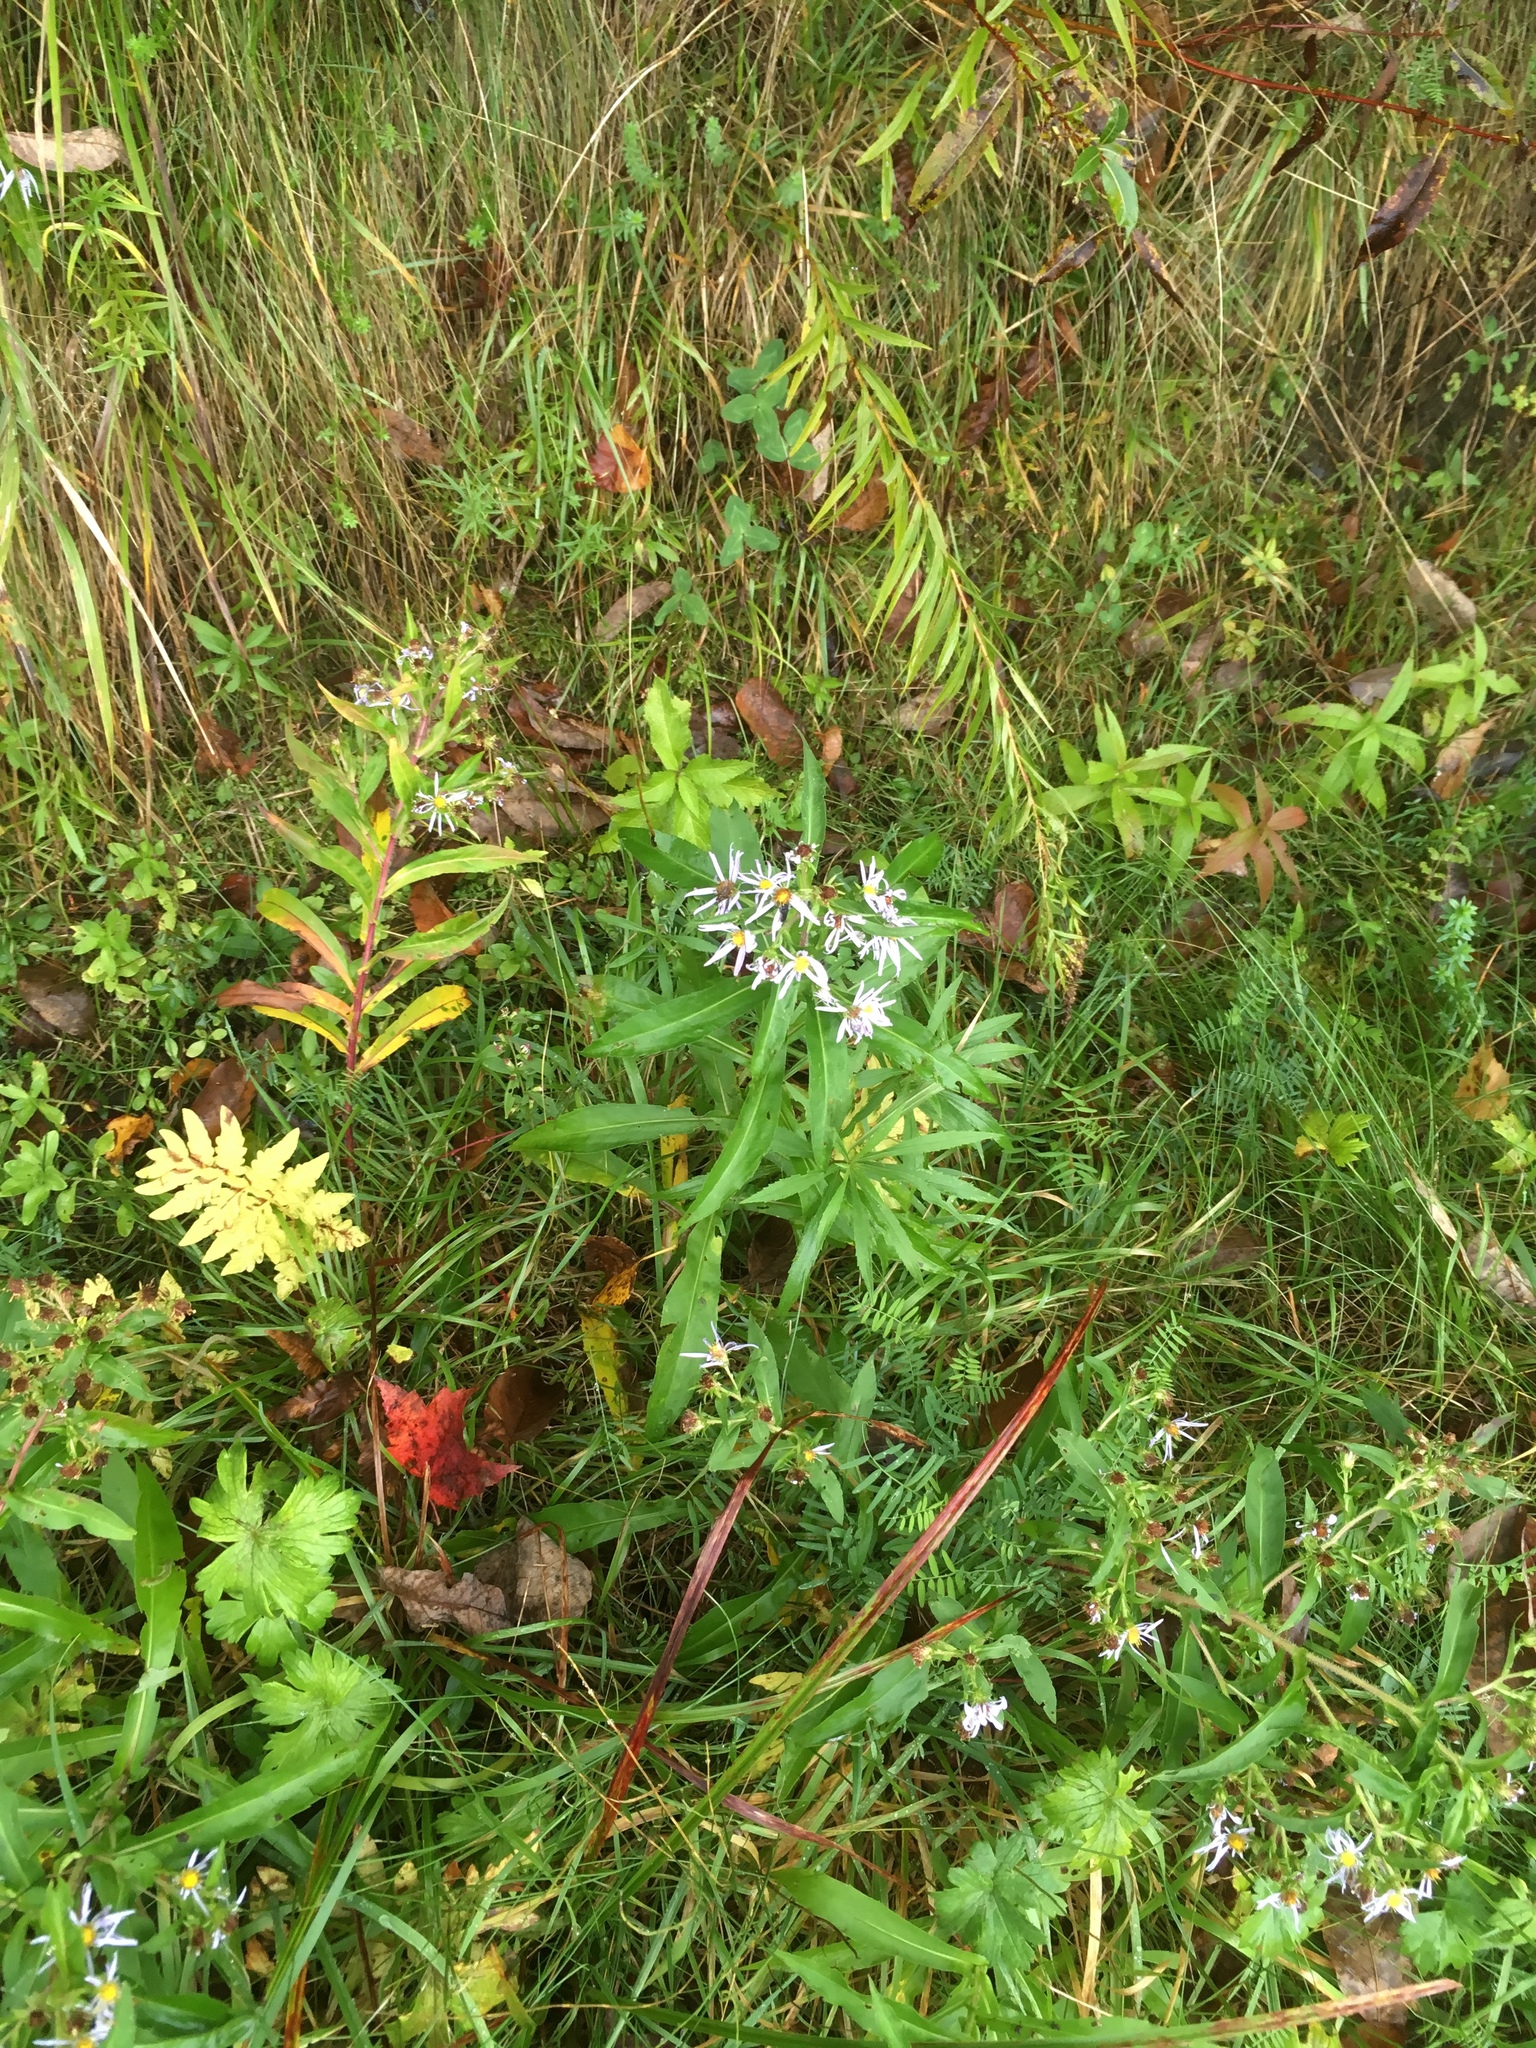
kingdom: Plantae
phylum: Tracheophyta
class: Magnoliopsida
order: Asterales
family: Asteraceae
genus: Symphyotrichum
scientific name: Symphyotrichum puniceum
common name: Bog aster
